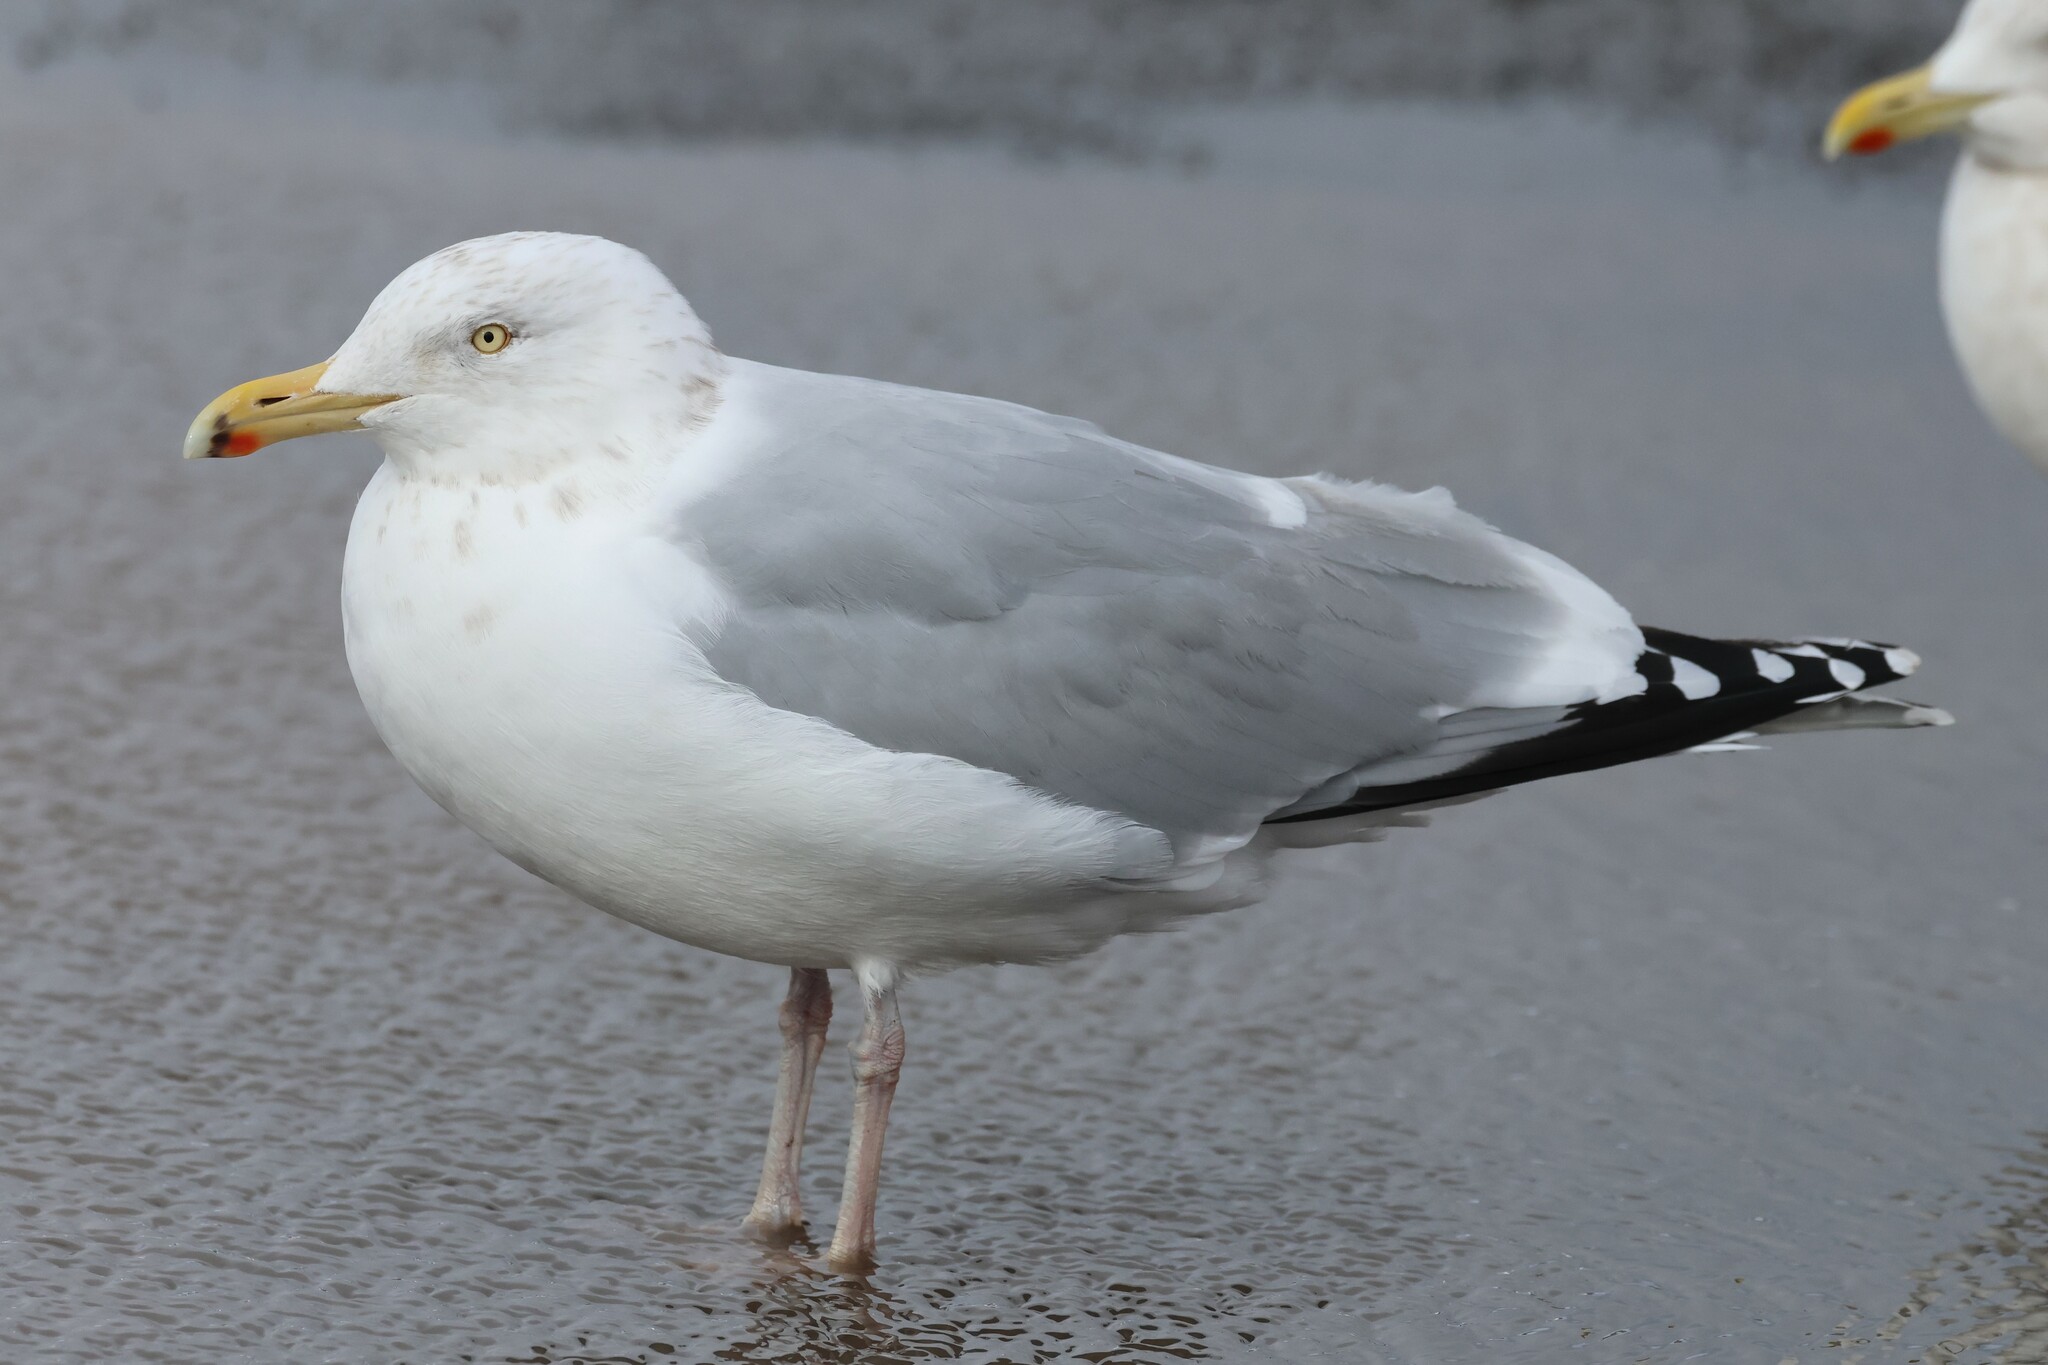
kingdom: Animalia
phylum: Chordata
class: Aves
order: Charadriiformes
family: Laridae
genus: Larus
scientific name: Larus argentatus
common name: Herring gull
